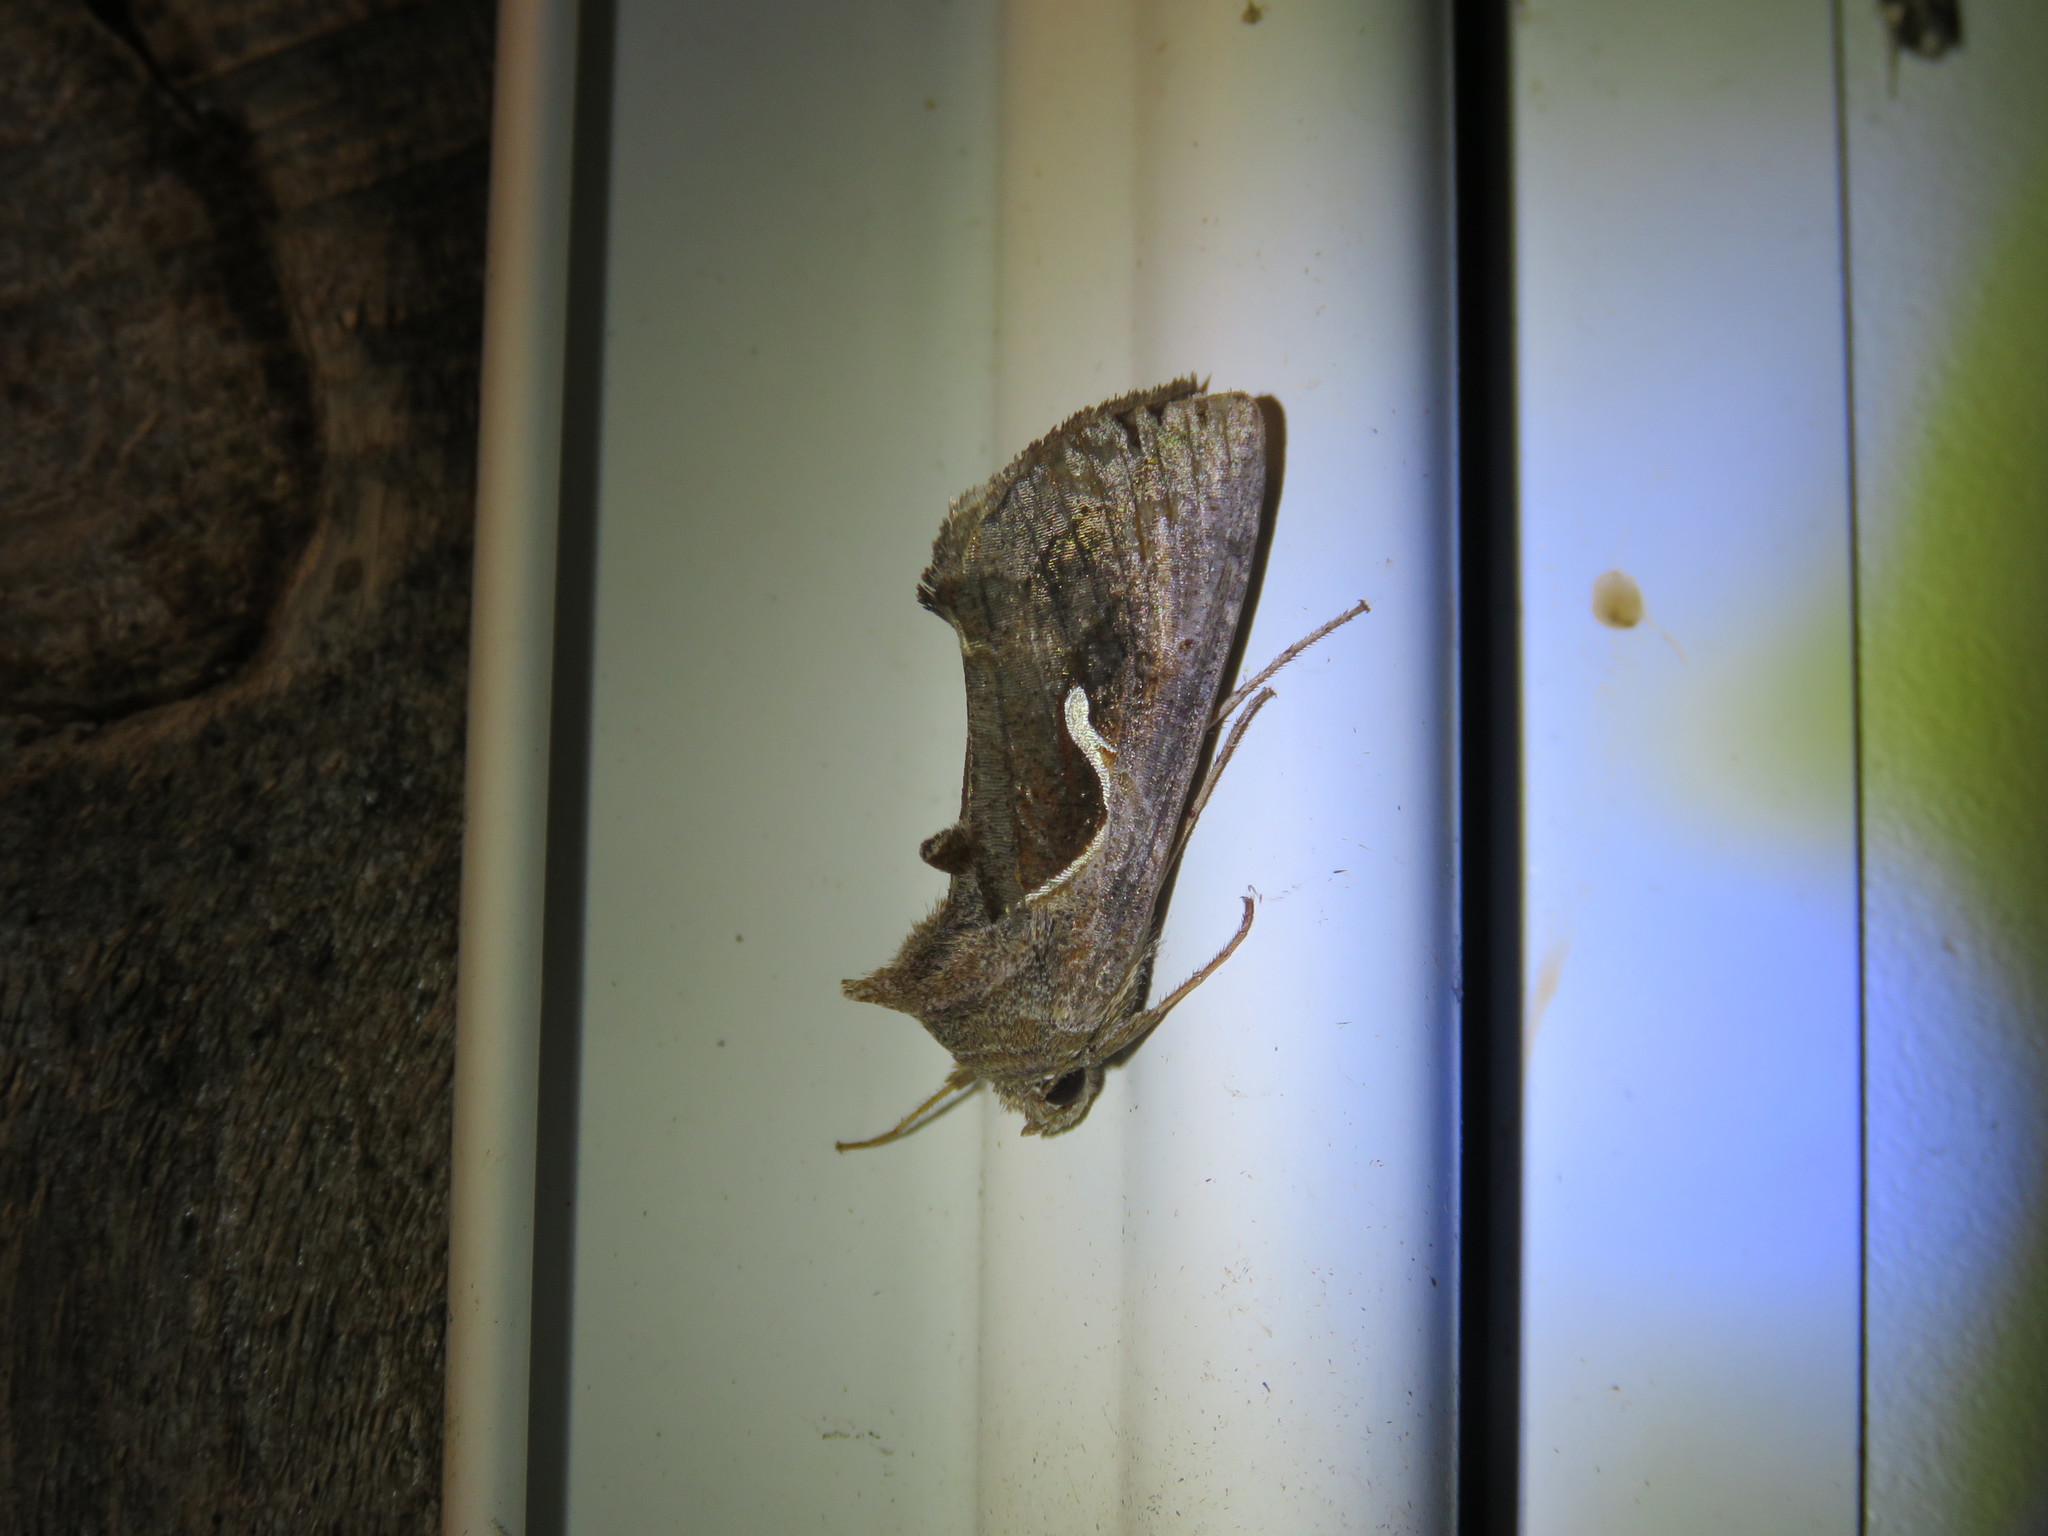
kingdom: Animalia
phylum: Arthropoda
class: Insecta
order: Lepidoptera
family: Noctuidae
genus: Anagrapha
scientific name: Anagrapha falcifera
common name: Celery looper
